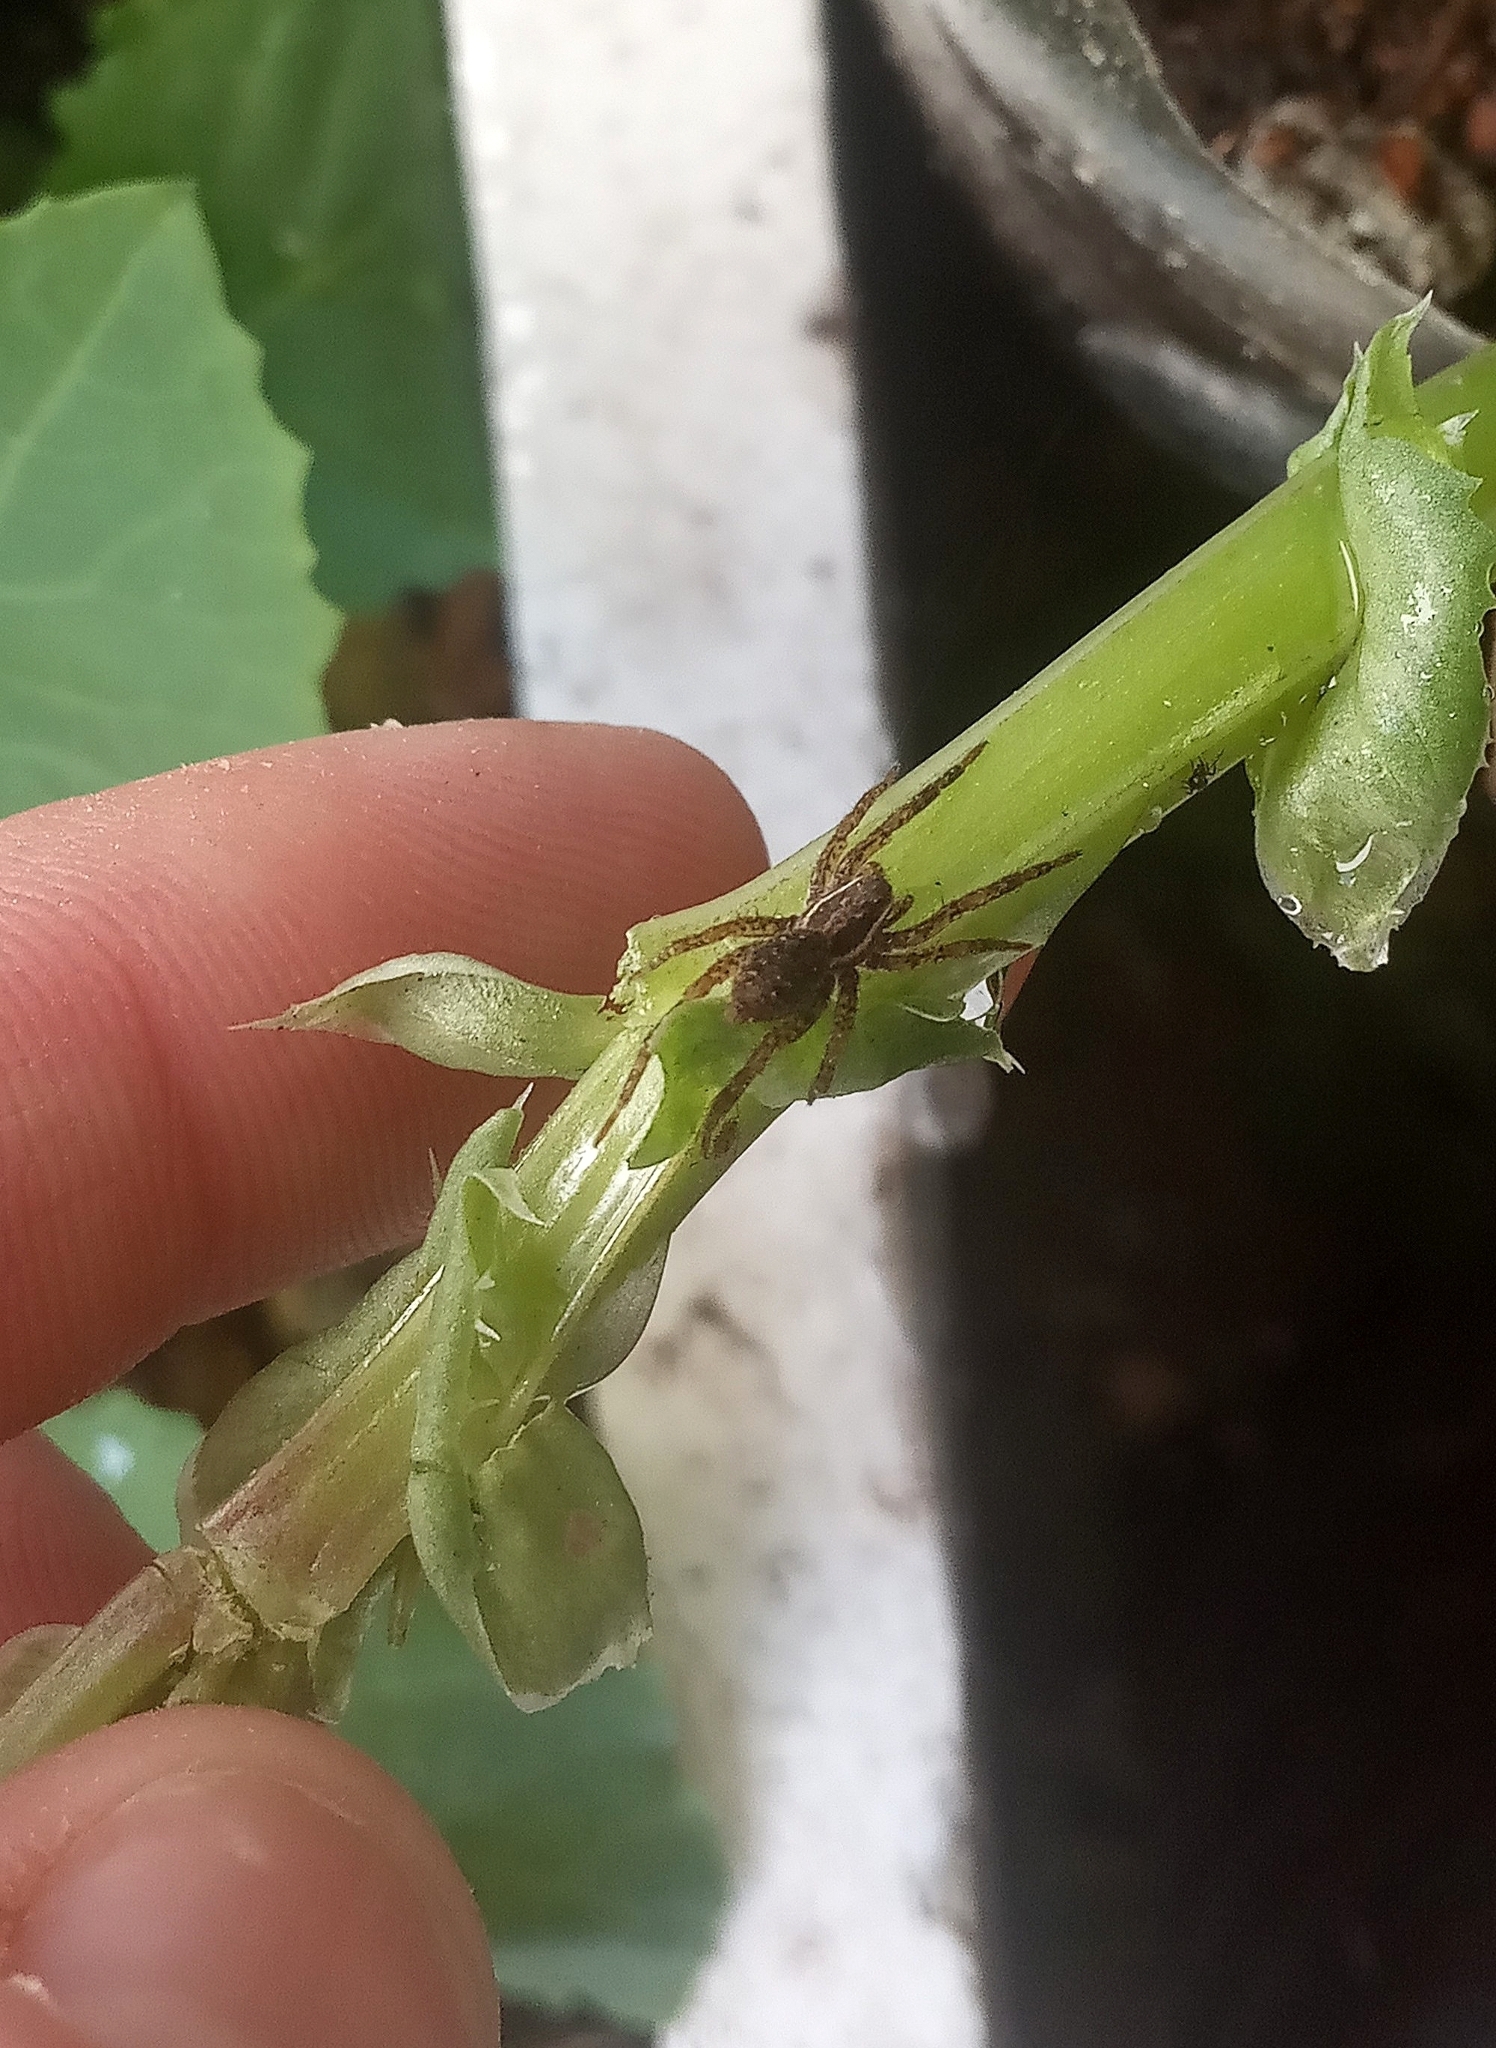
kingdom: Animalia
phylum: Arthropoda
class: Arachnida
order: Araneae
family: Lycosidae
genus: Trochosa
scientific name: Trochosa niveopilosa
